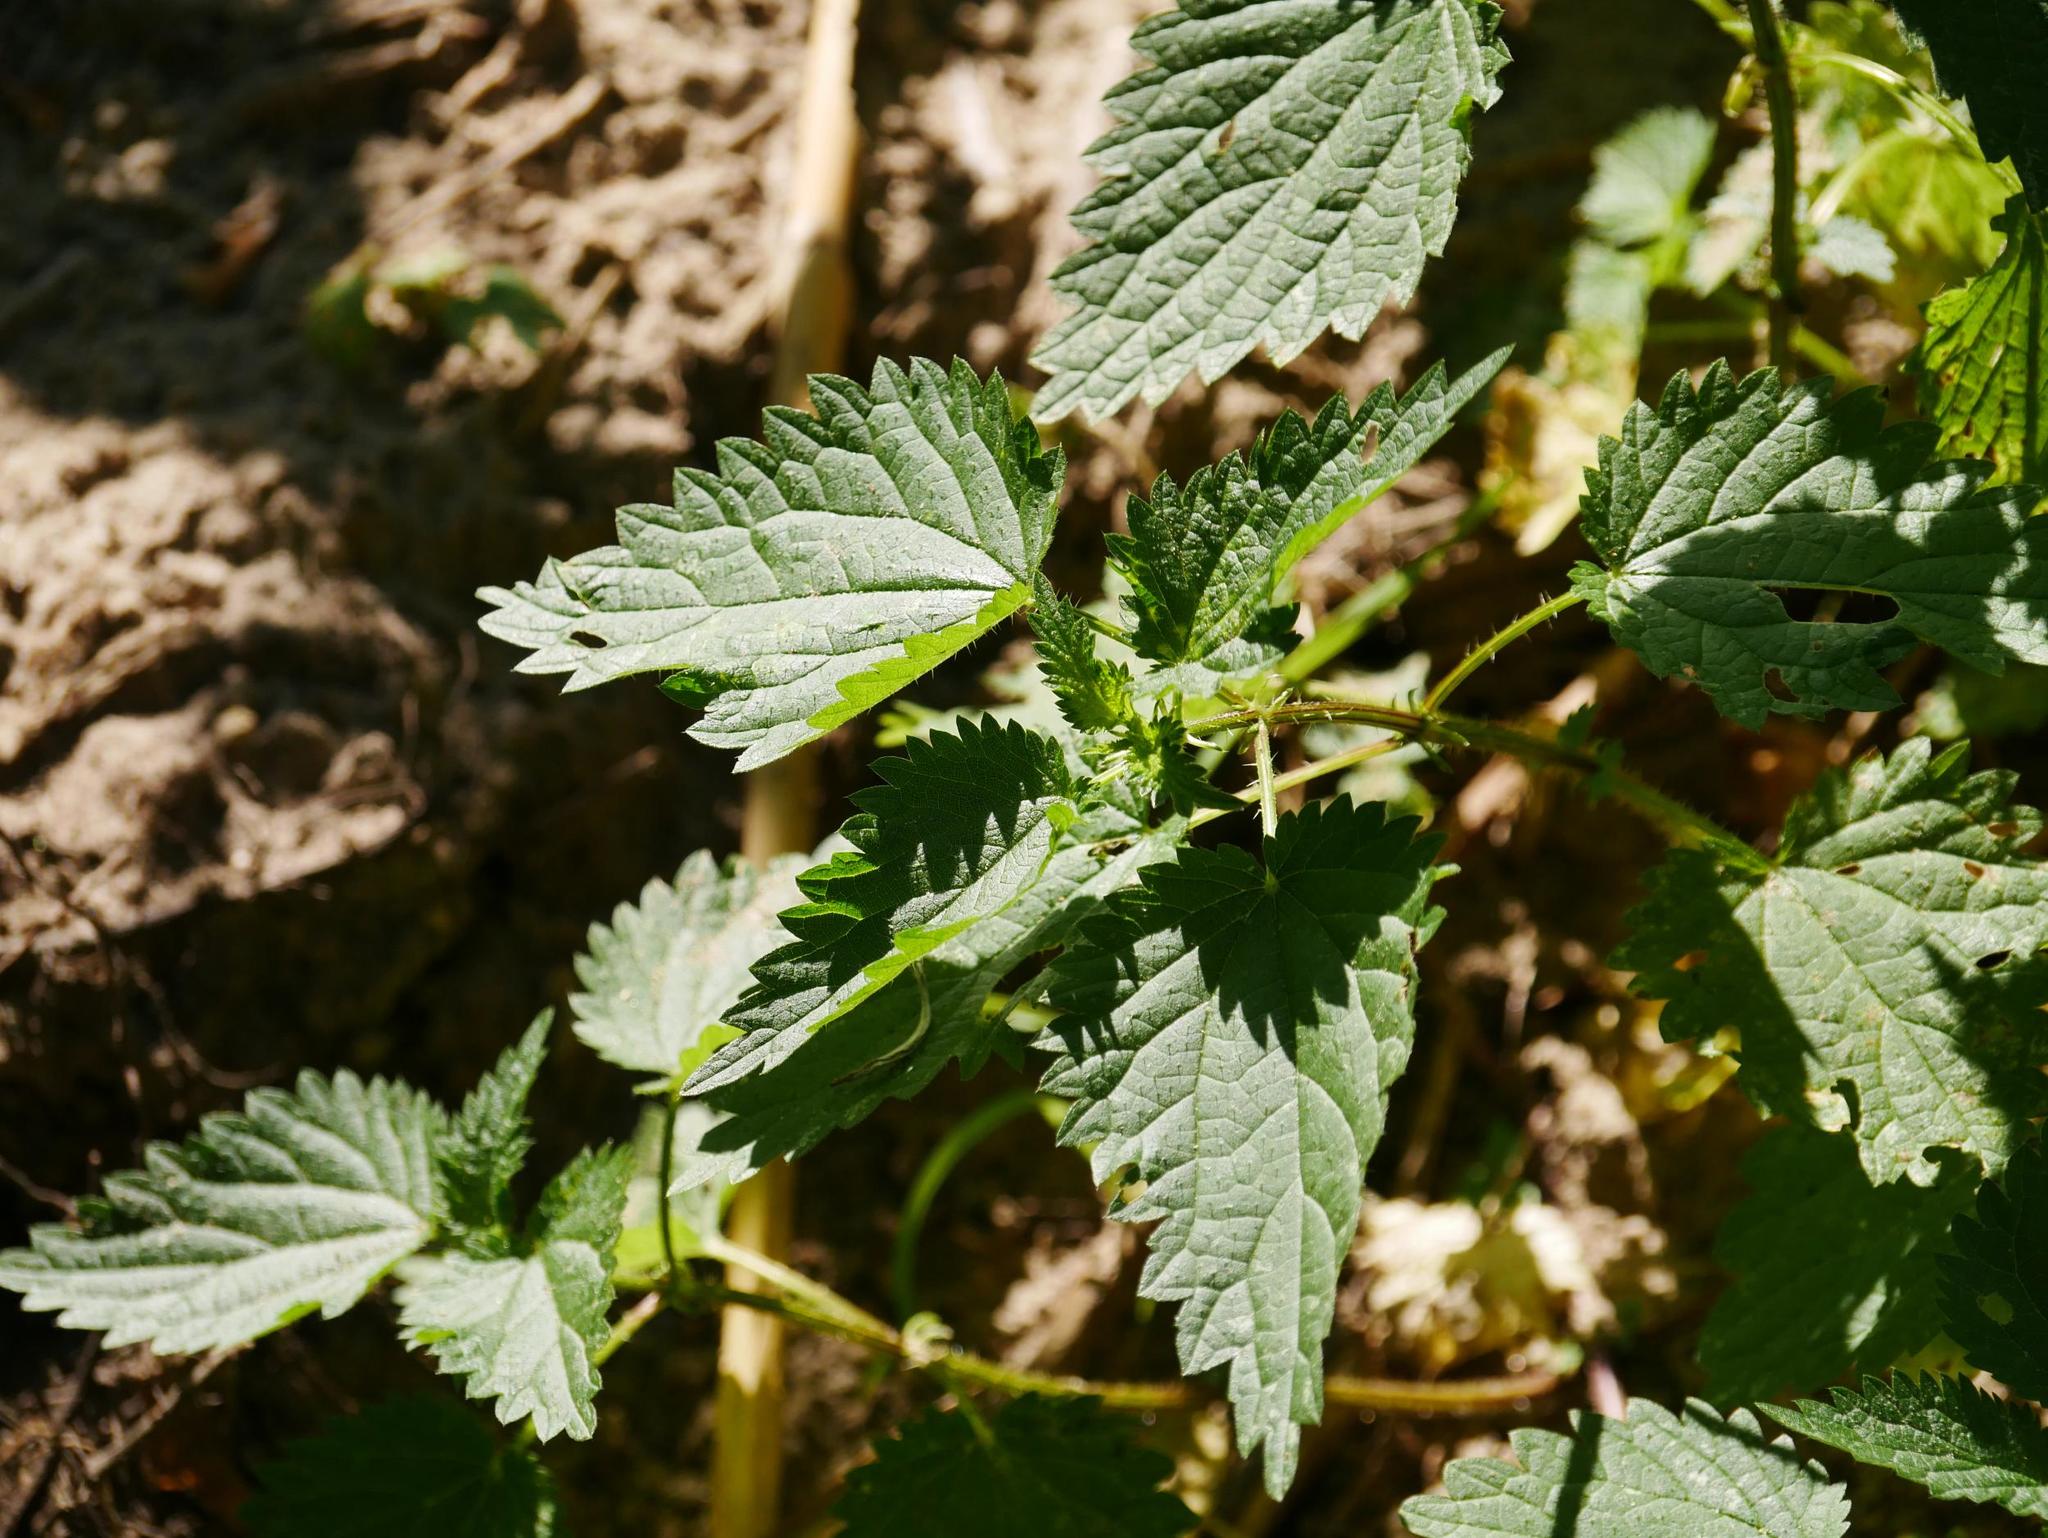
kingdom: Plantae
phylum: Tracheophyta
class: Magnoliopsida
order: Rosales
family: Urticaceae
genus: Urtica
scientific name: Urtica dioica
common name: Common nettle
